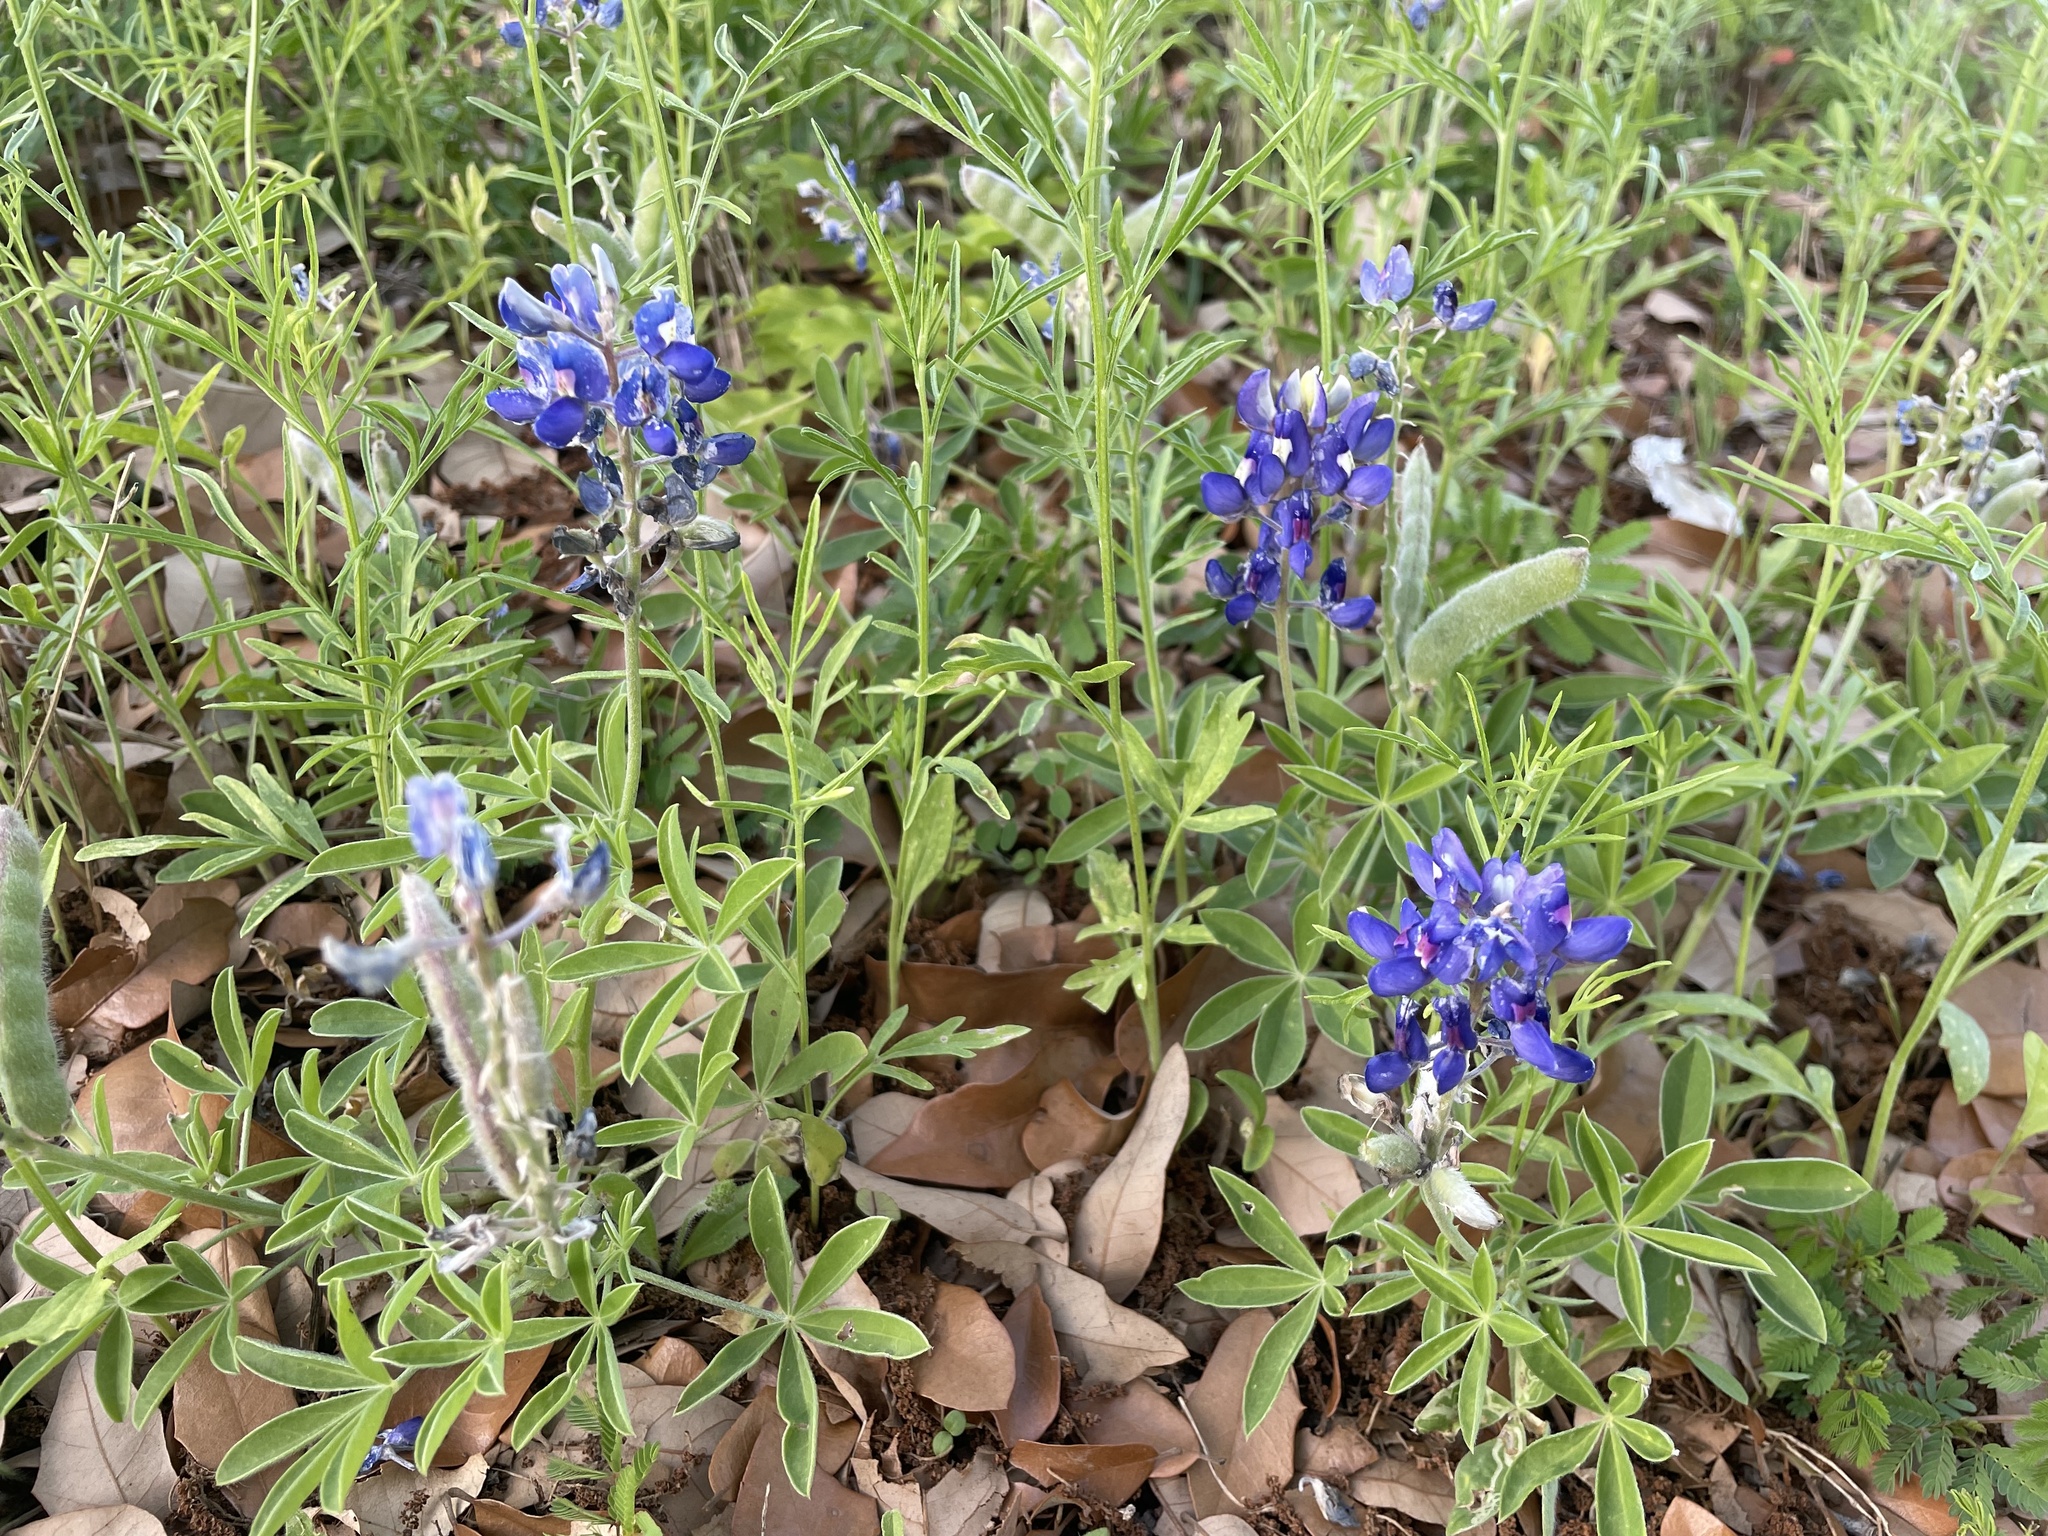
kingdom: Plantae
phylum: Tracheophyta
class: Magnoliopsida
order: Fabales
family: Fabaceae
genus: Lupinus
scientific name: Lupinus texensis
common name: Texas bluebonnet
